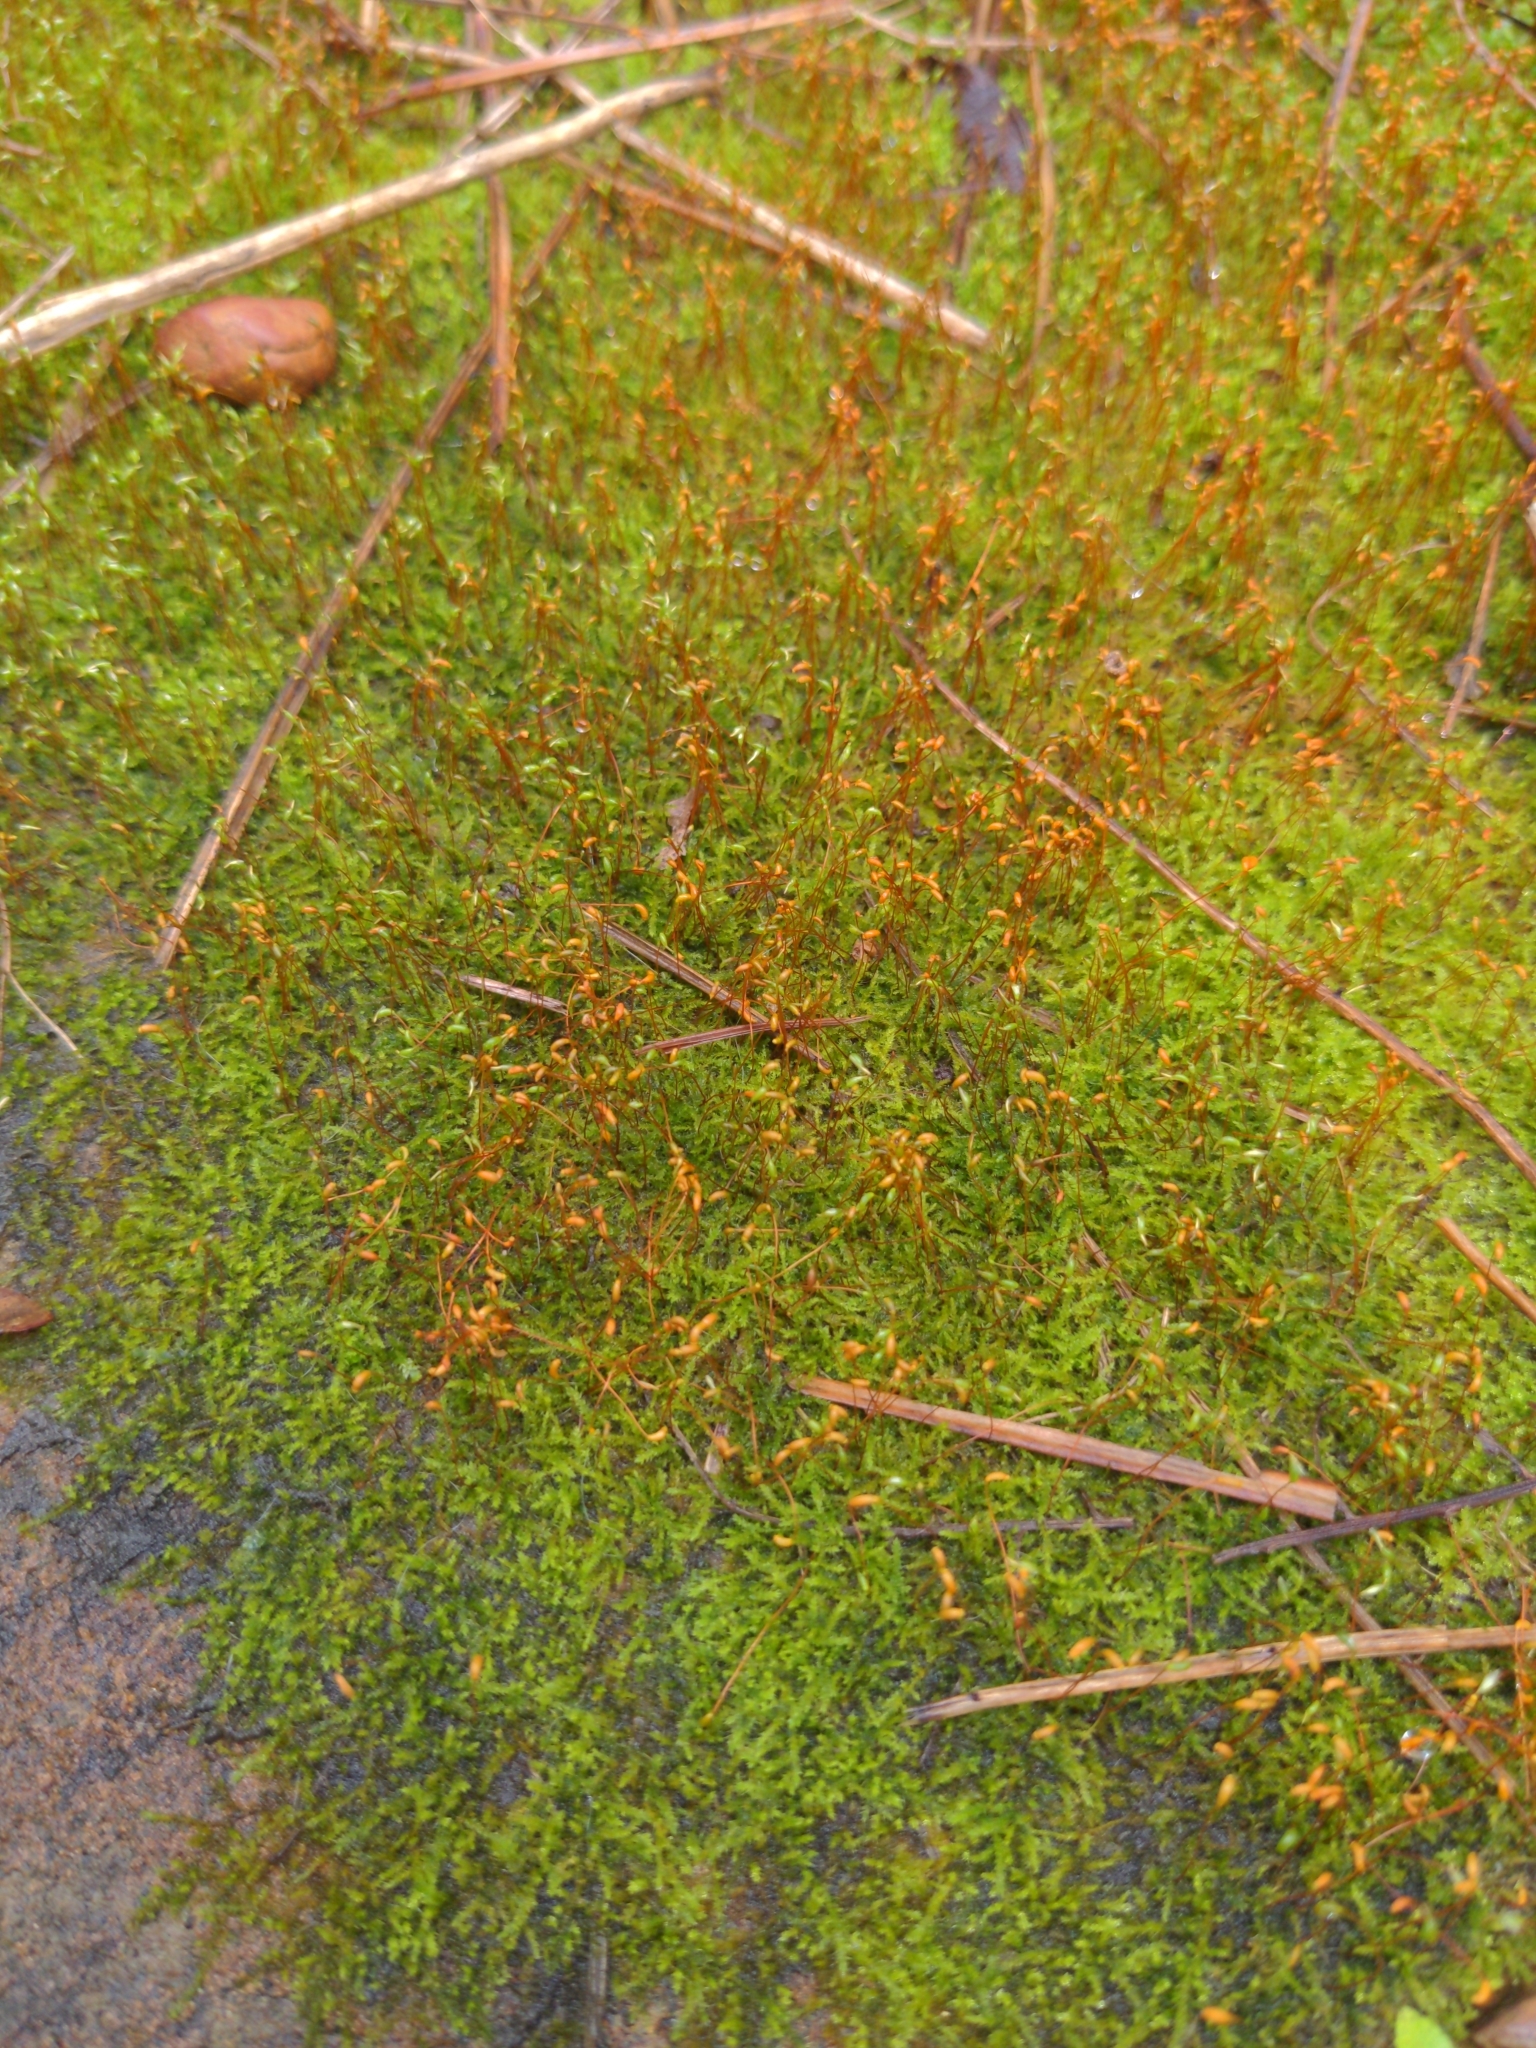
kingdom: Plantae
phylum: Bryophyta
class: Bryopsida
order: Hypnales
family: Amblystegiaceae
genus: Hygroamblystegium
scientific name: Hygroamblystegium varium
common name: Willow feather-moss
